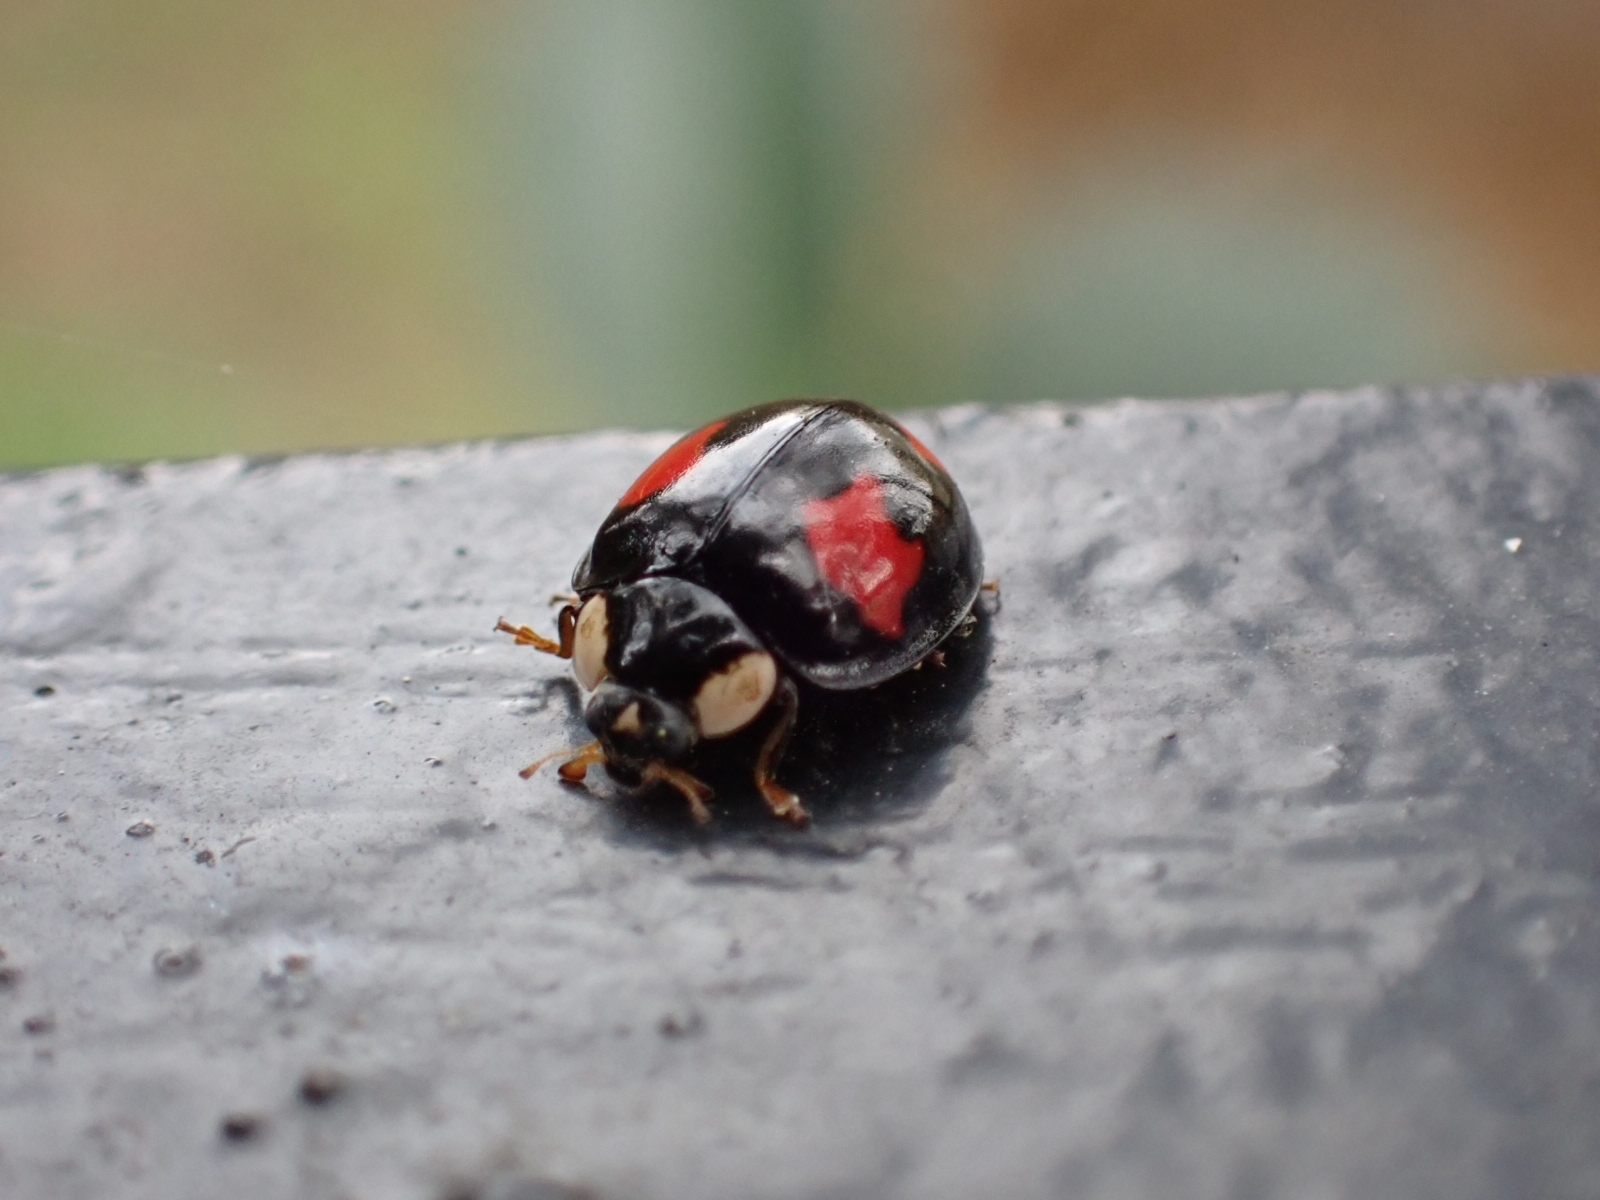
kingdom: Animalia
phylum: Arthropoda
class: Insecta
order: Coleoptera
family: Coccinellidae
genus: Harmonia
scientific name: Harmonia axyridis
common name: Harlequin ladybird
